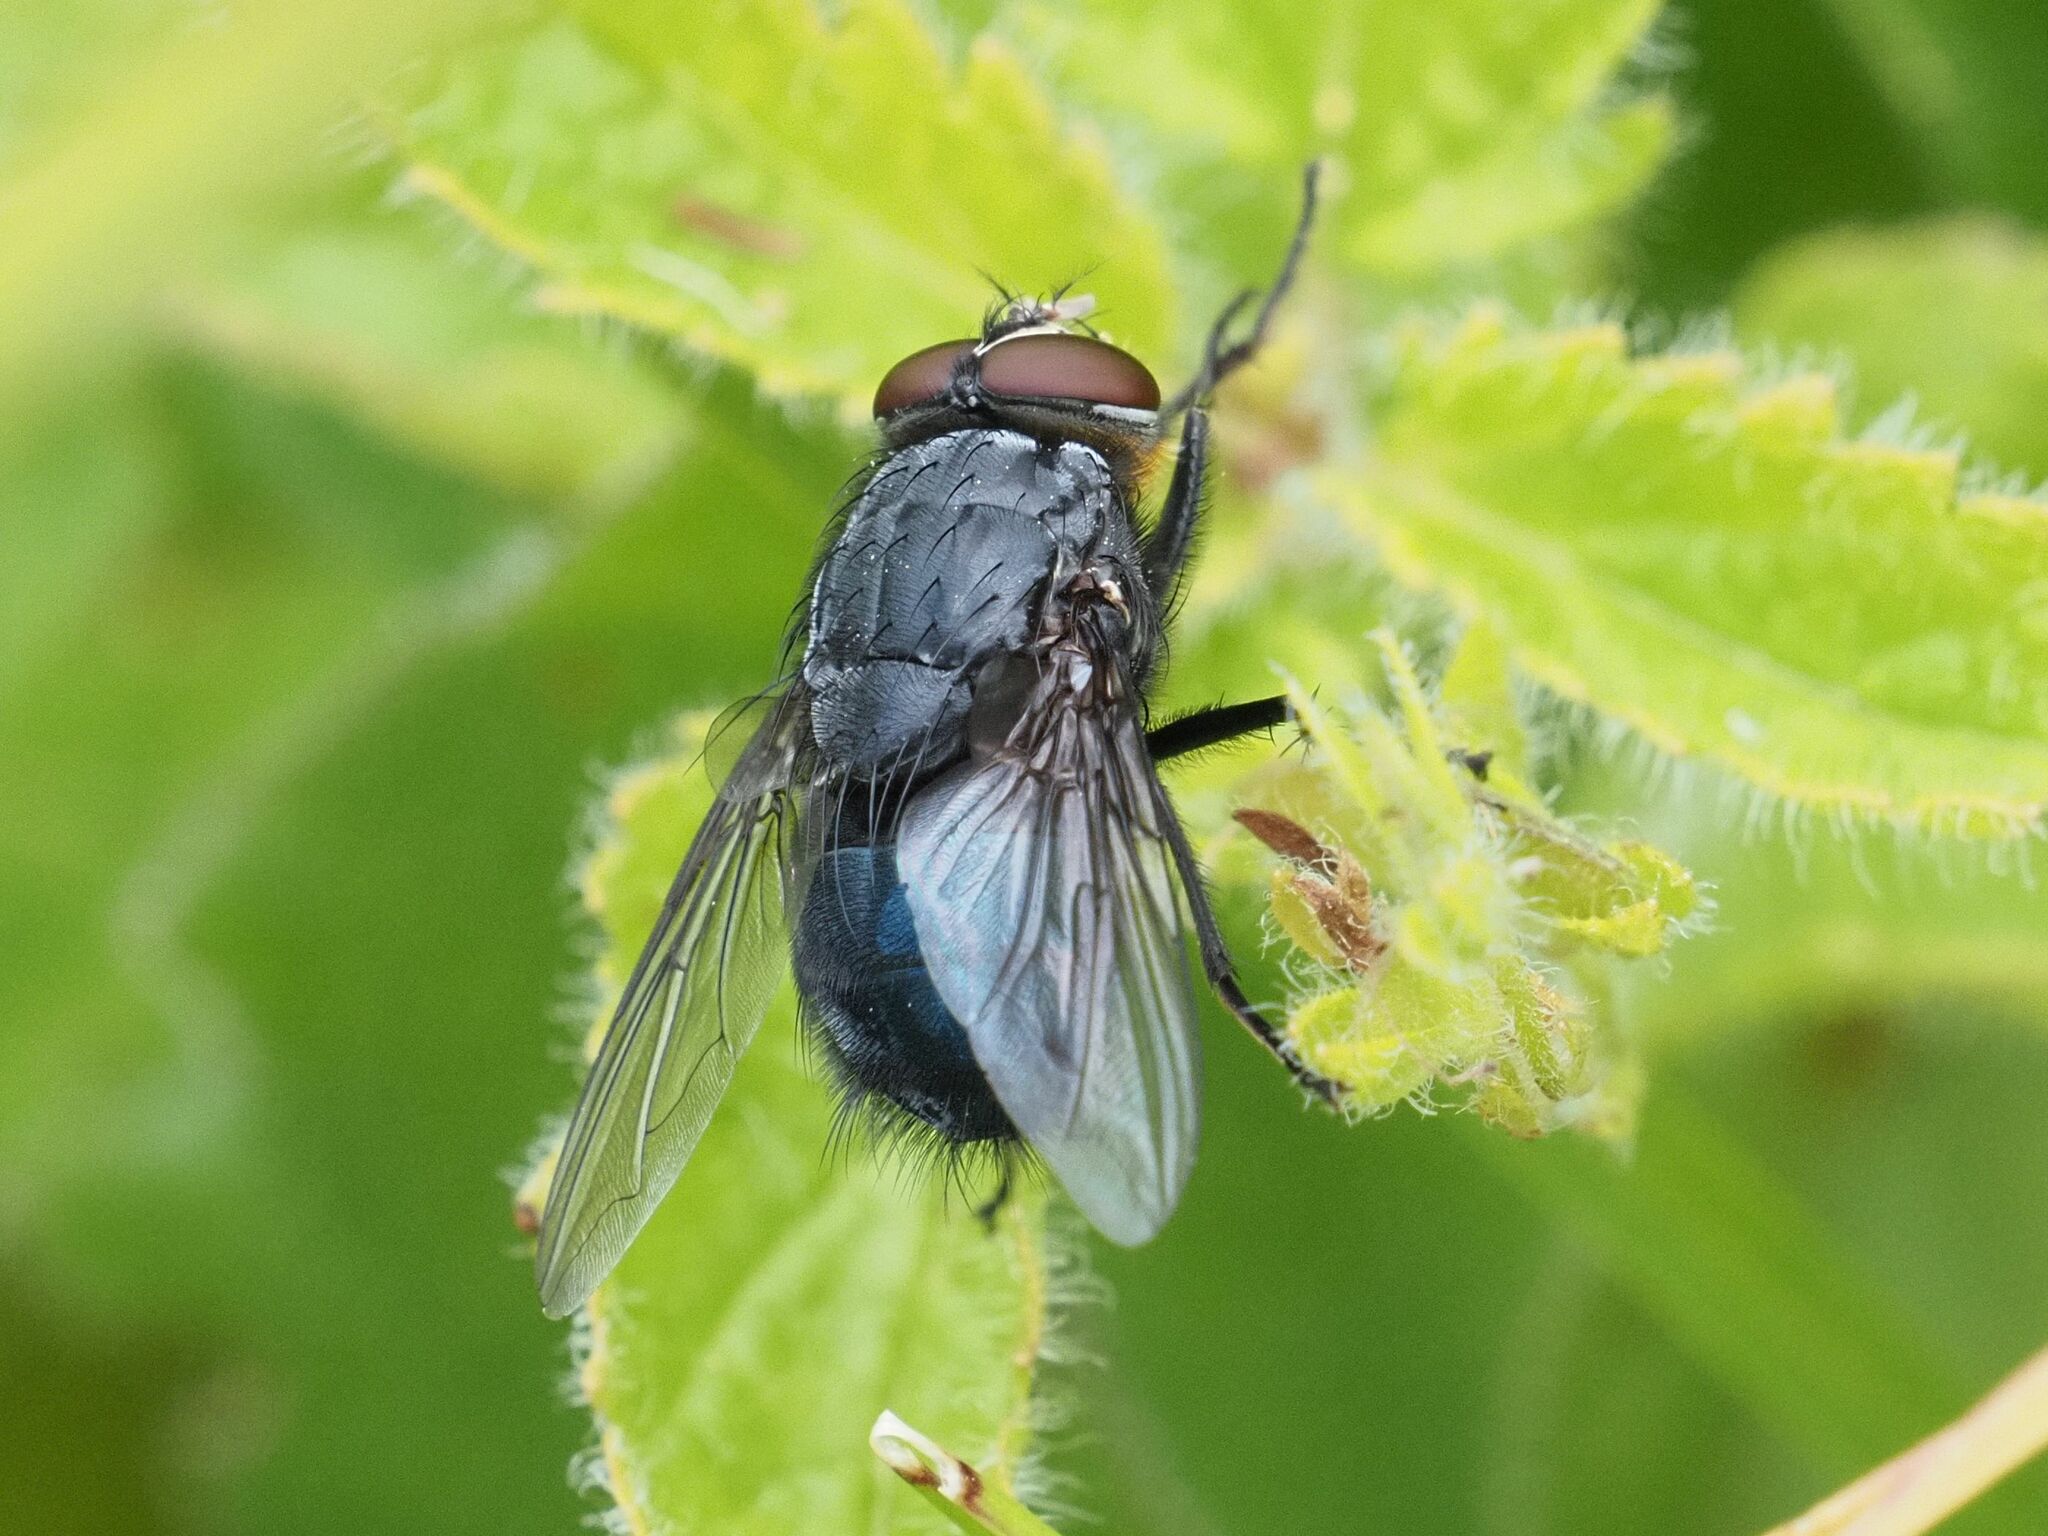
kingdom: Animalia
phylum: Arthropoda
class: Insecta
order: Diptera
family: Calliphoridae
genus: Calliphora
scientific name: Calliphora vomitoria
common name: Blue bottle fly
